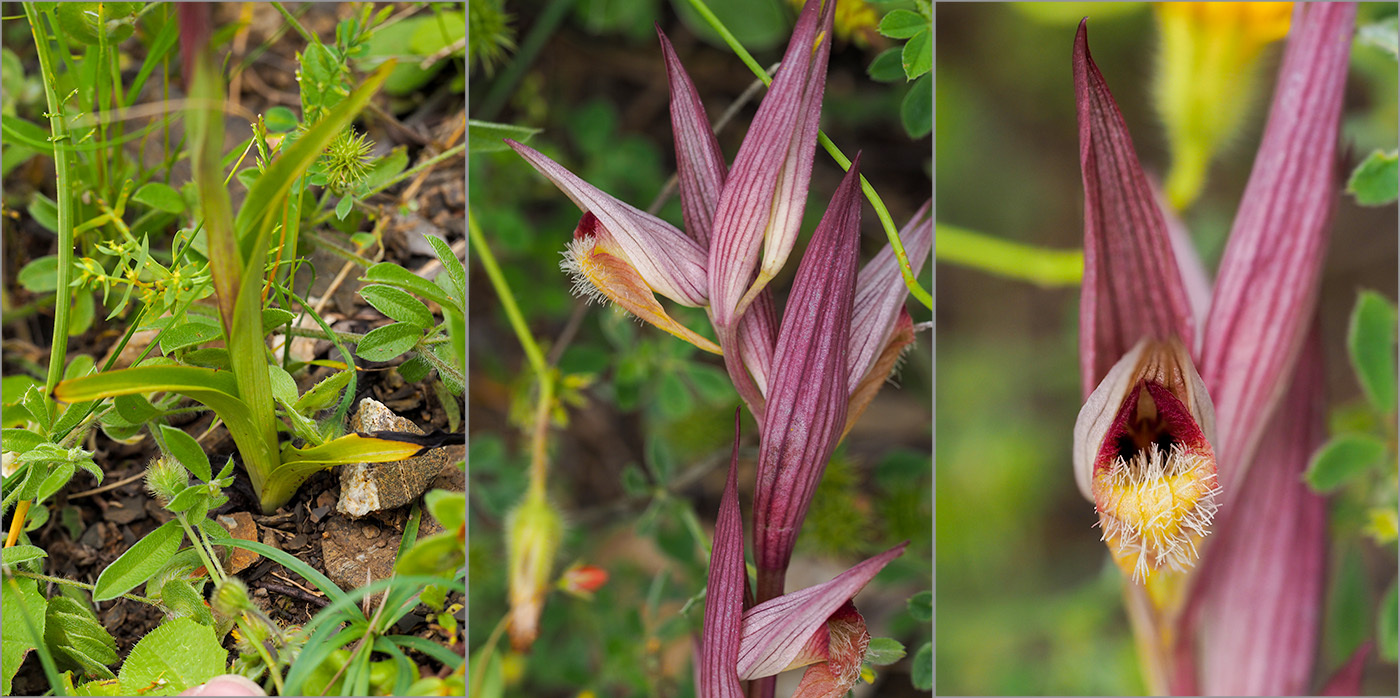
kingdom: Plantae
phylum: Tracheophyta
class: Liliopsida
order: Asparagales
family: Orchidaceae
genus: Serapias
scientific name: Serapias vomeracea
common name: Long-lipped tongue-orchid
